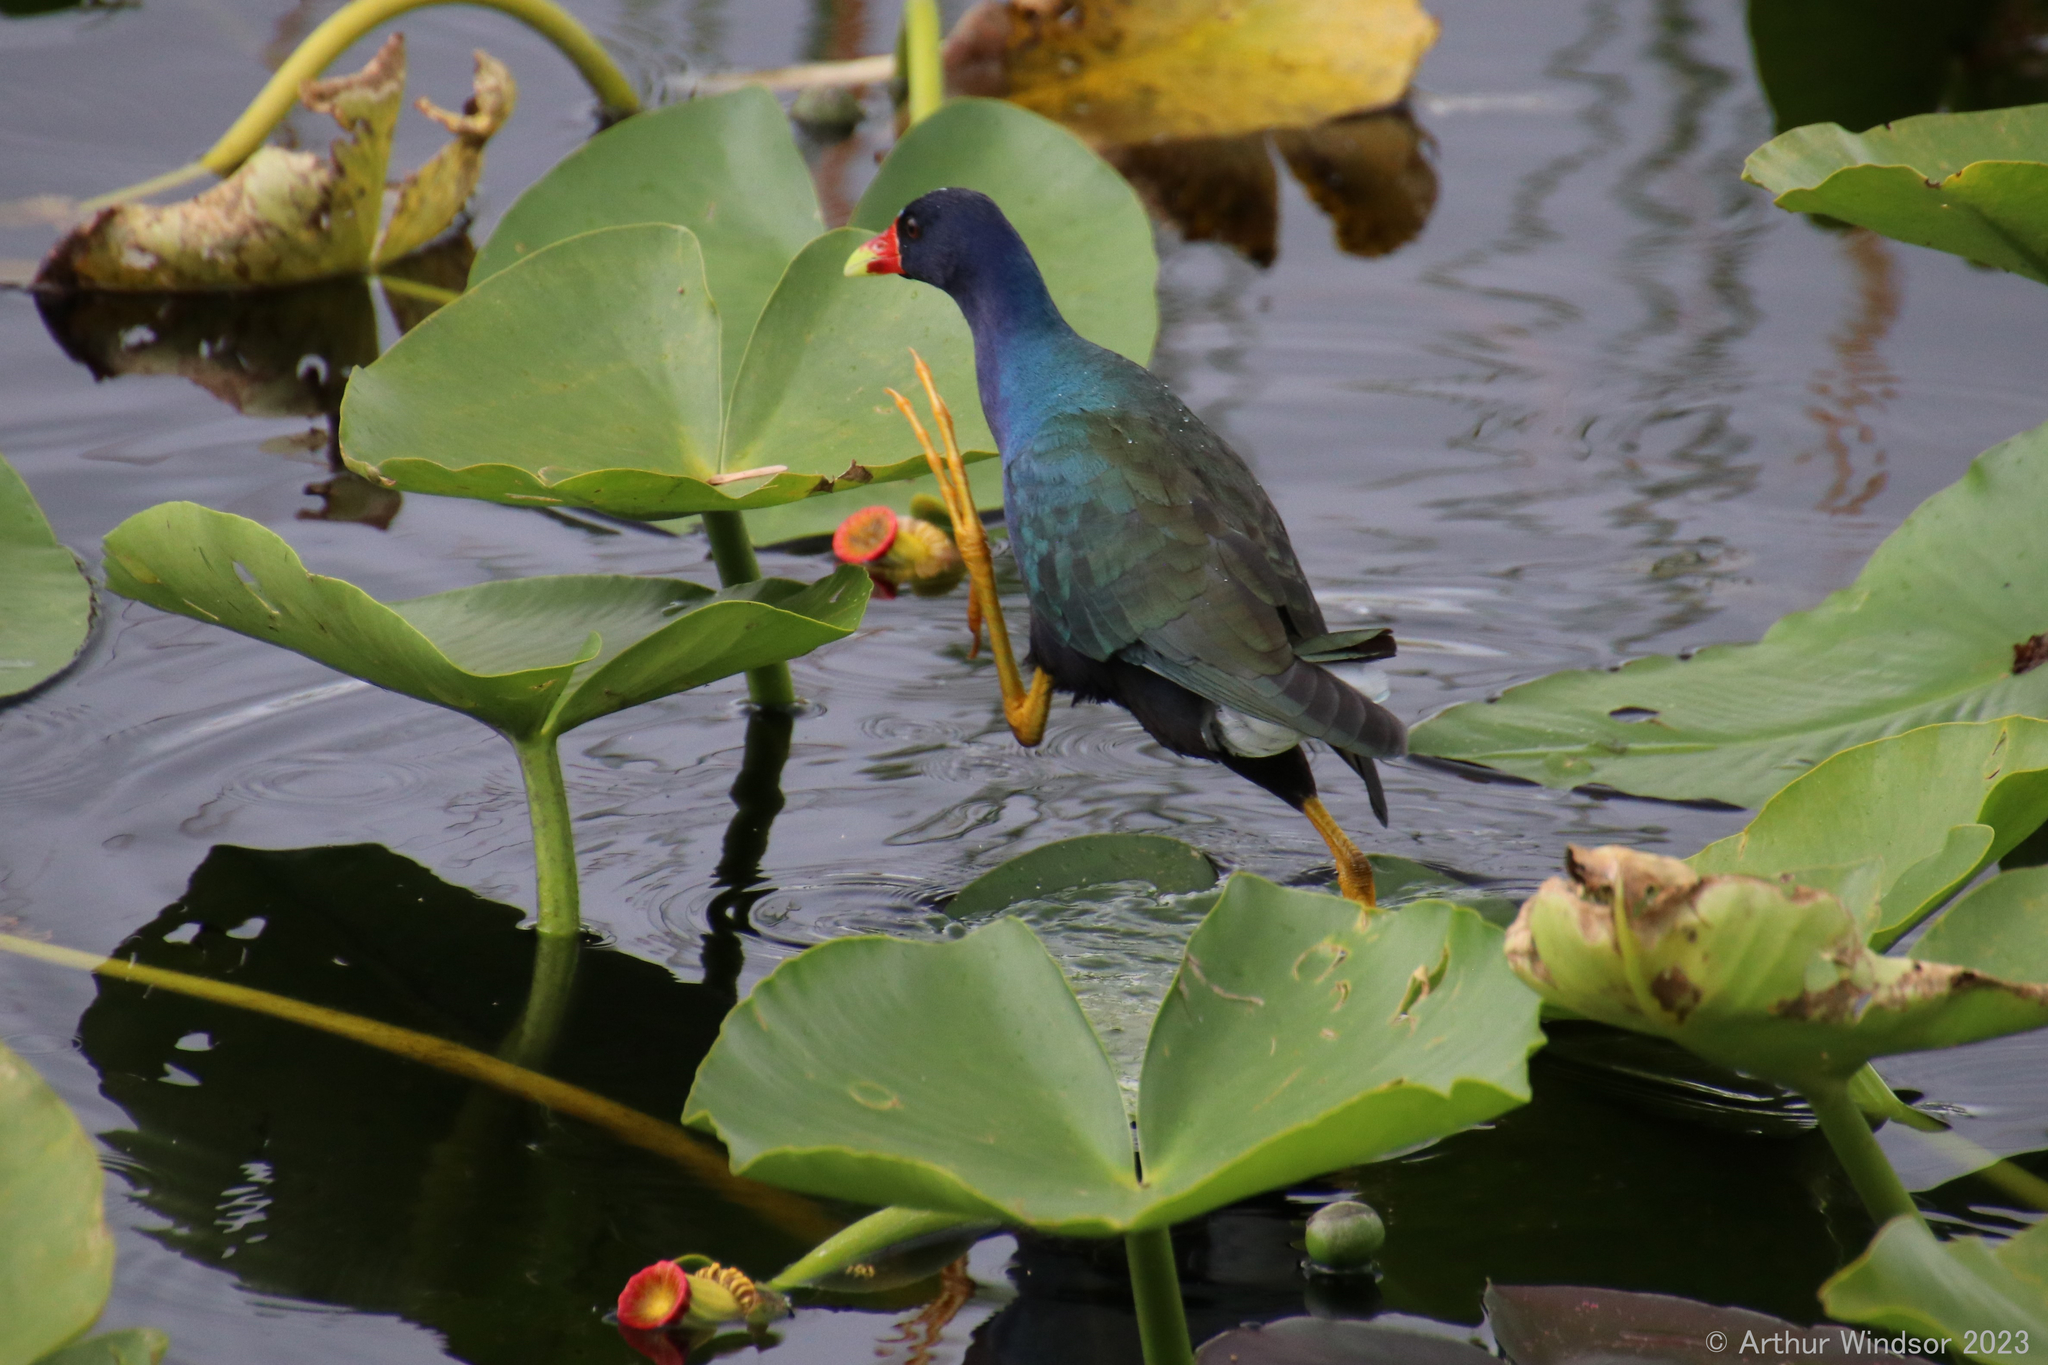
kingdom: Animalia
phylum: Chordata
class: Aves
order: Gruiformes
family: Rallidae
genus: Porphyrio
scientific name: Porphyrio martinica
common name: Purple gallinule
